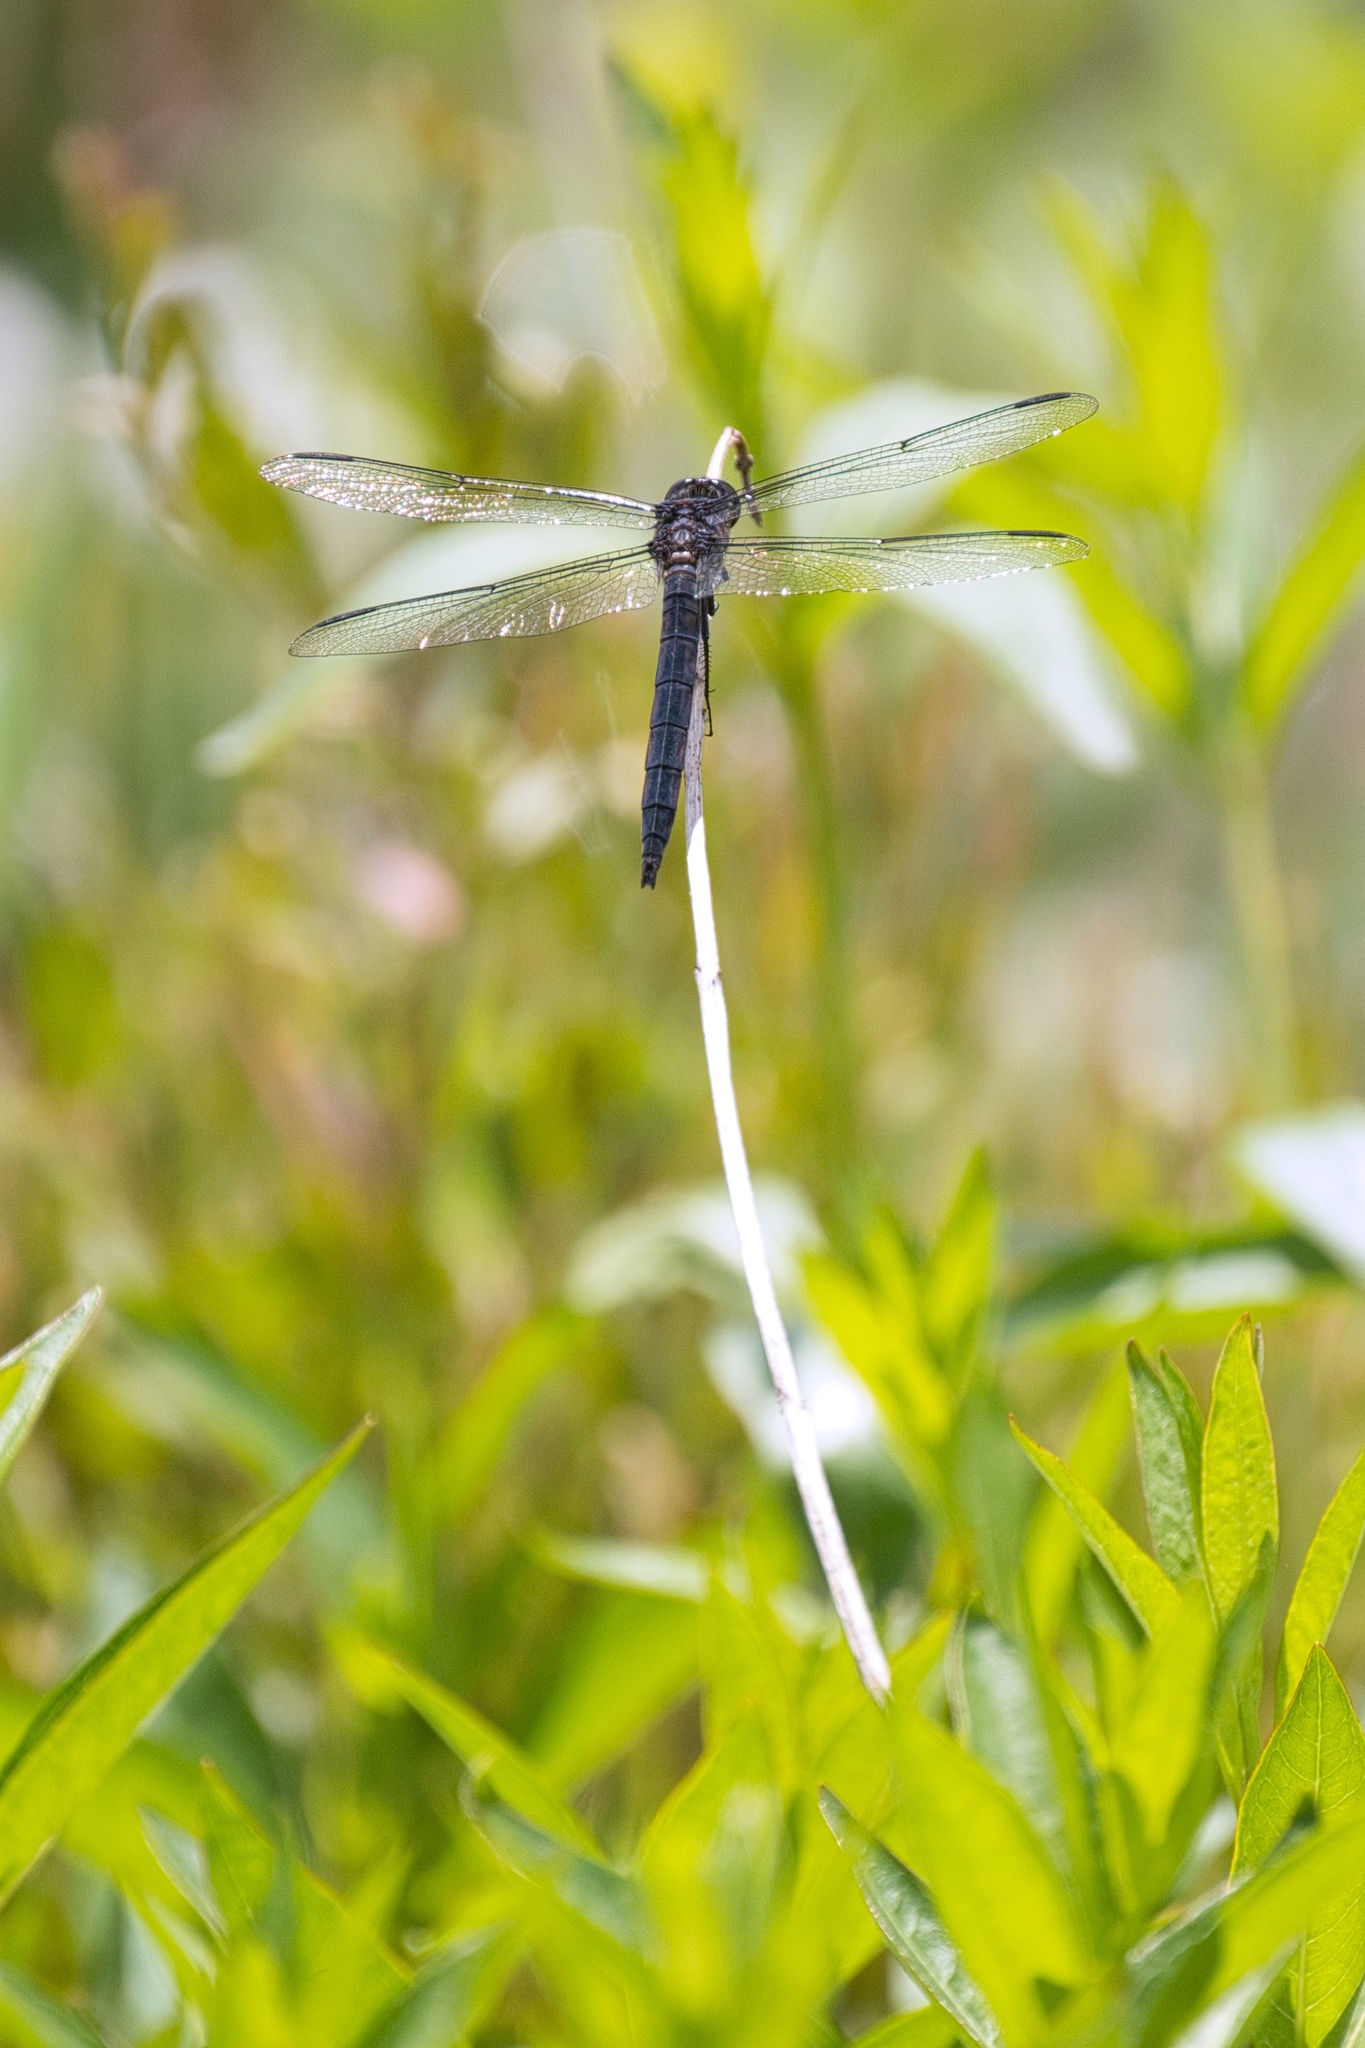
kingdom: Animalia
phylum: Arthropoda
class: Insecta
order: Odonata
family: Libellulidae
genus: Libellula
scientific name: Libellula incesta
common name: Slaty skimmer
